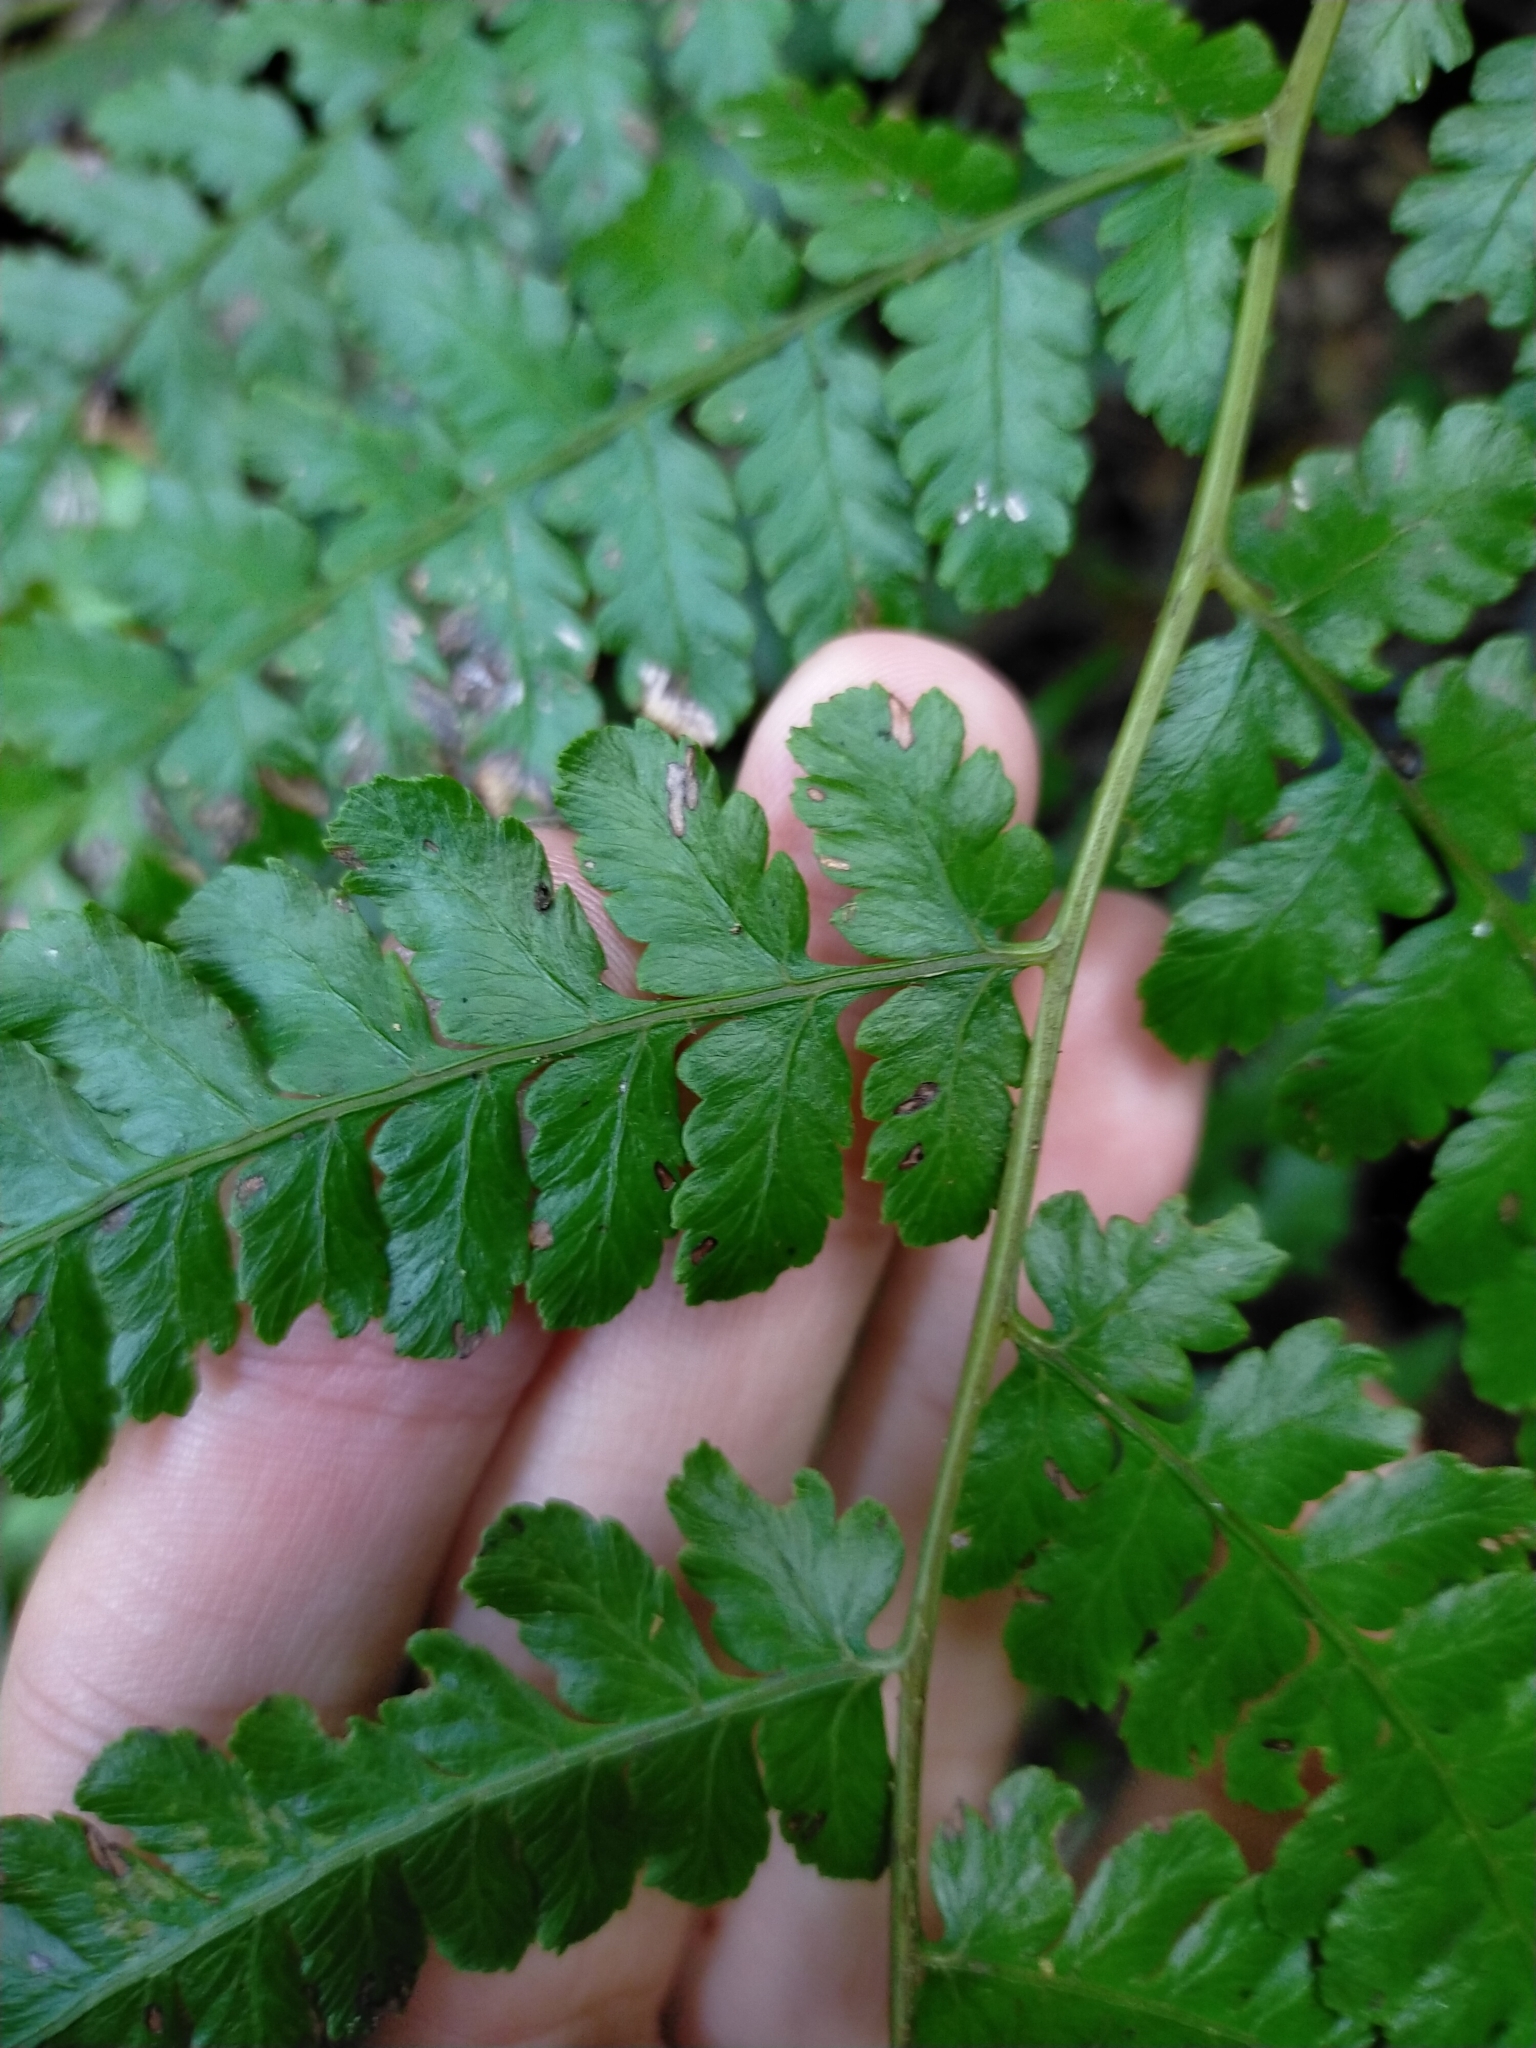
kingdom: Plantae
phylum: Tracheophyta
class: Polypodiopsida
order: Polypodiales
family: Athyriaceae
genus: Diplazium
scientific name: Diplazium kawakamii
